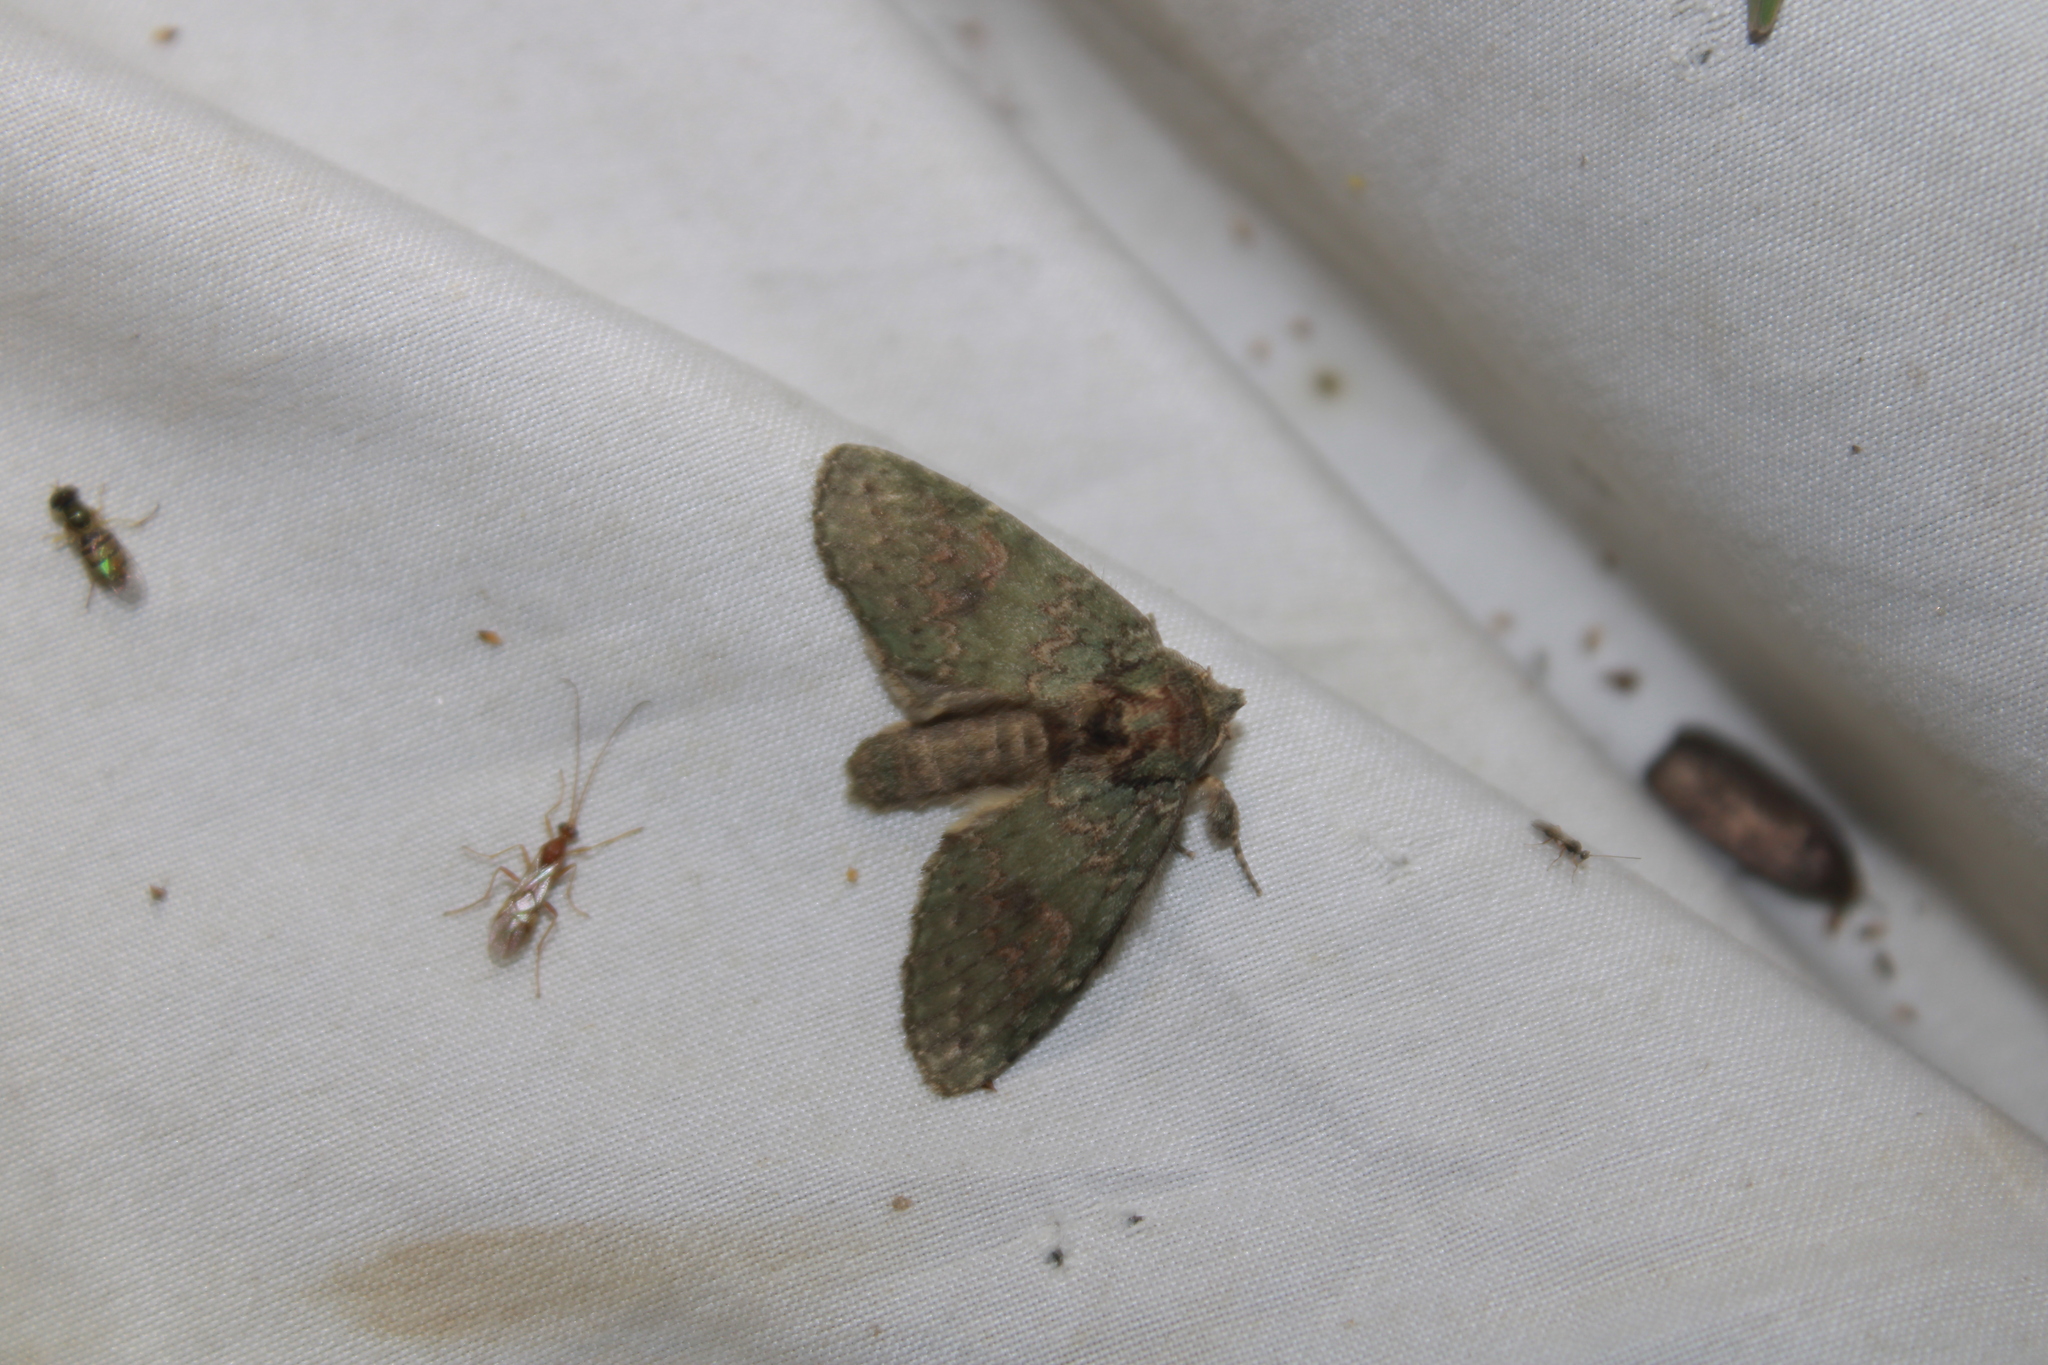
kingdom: Animalia
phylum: Arthropoda
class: Insecta
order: Lepidoptera
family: Notodontidae
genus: Disphragis
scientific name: Disphragis Cecrita biundata
